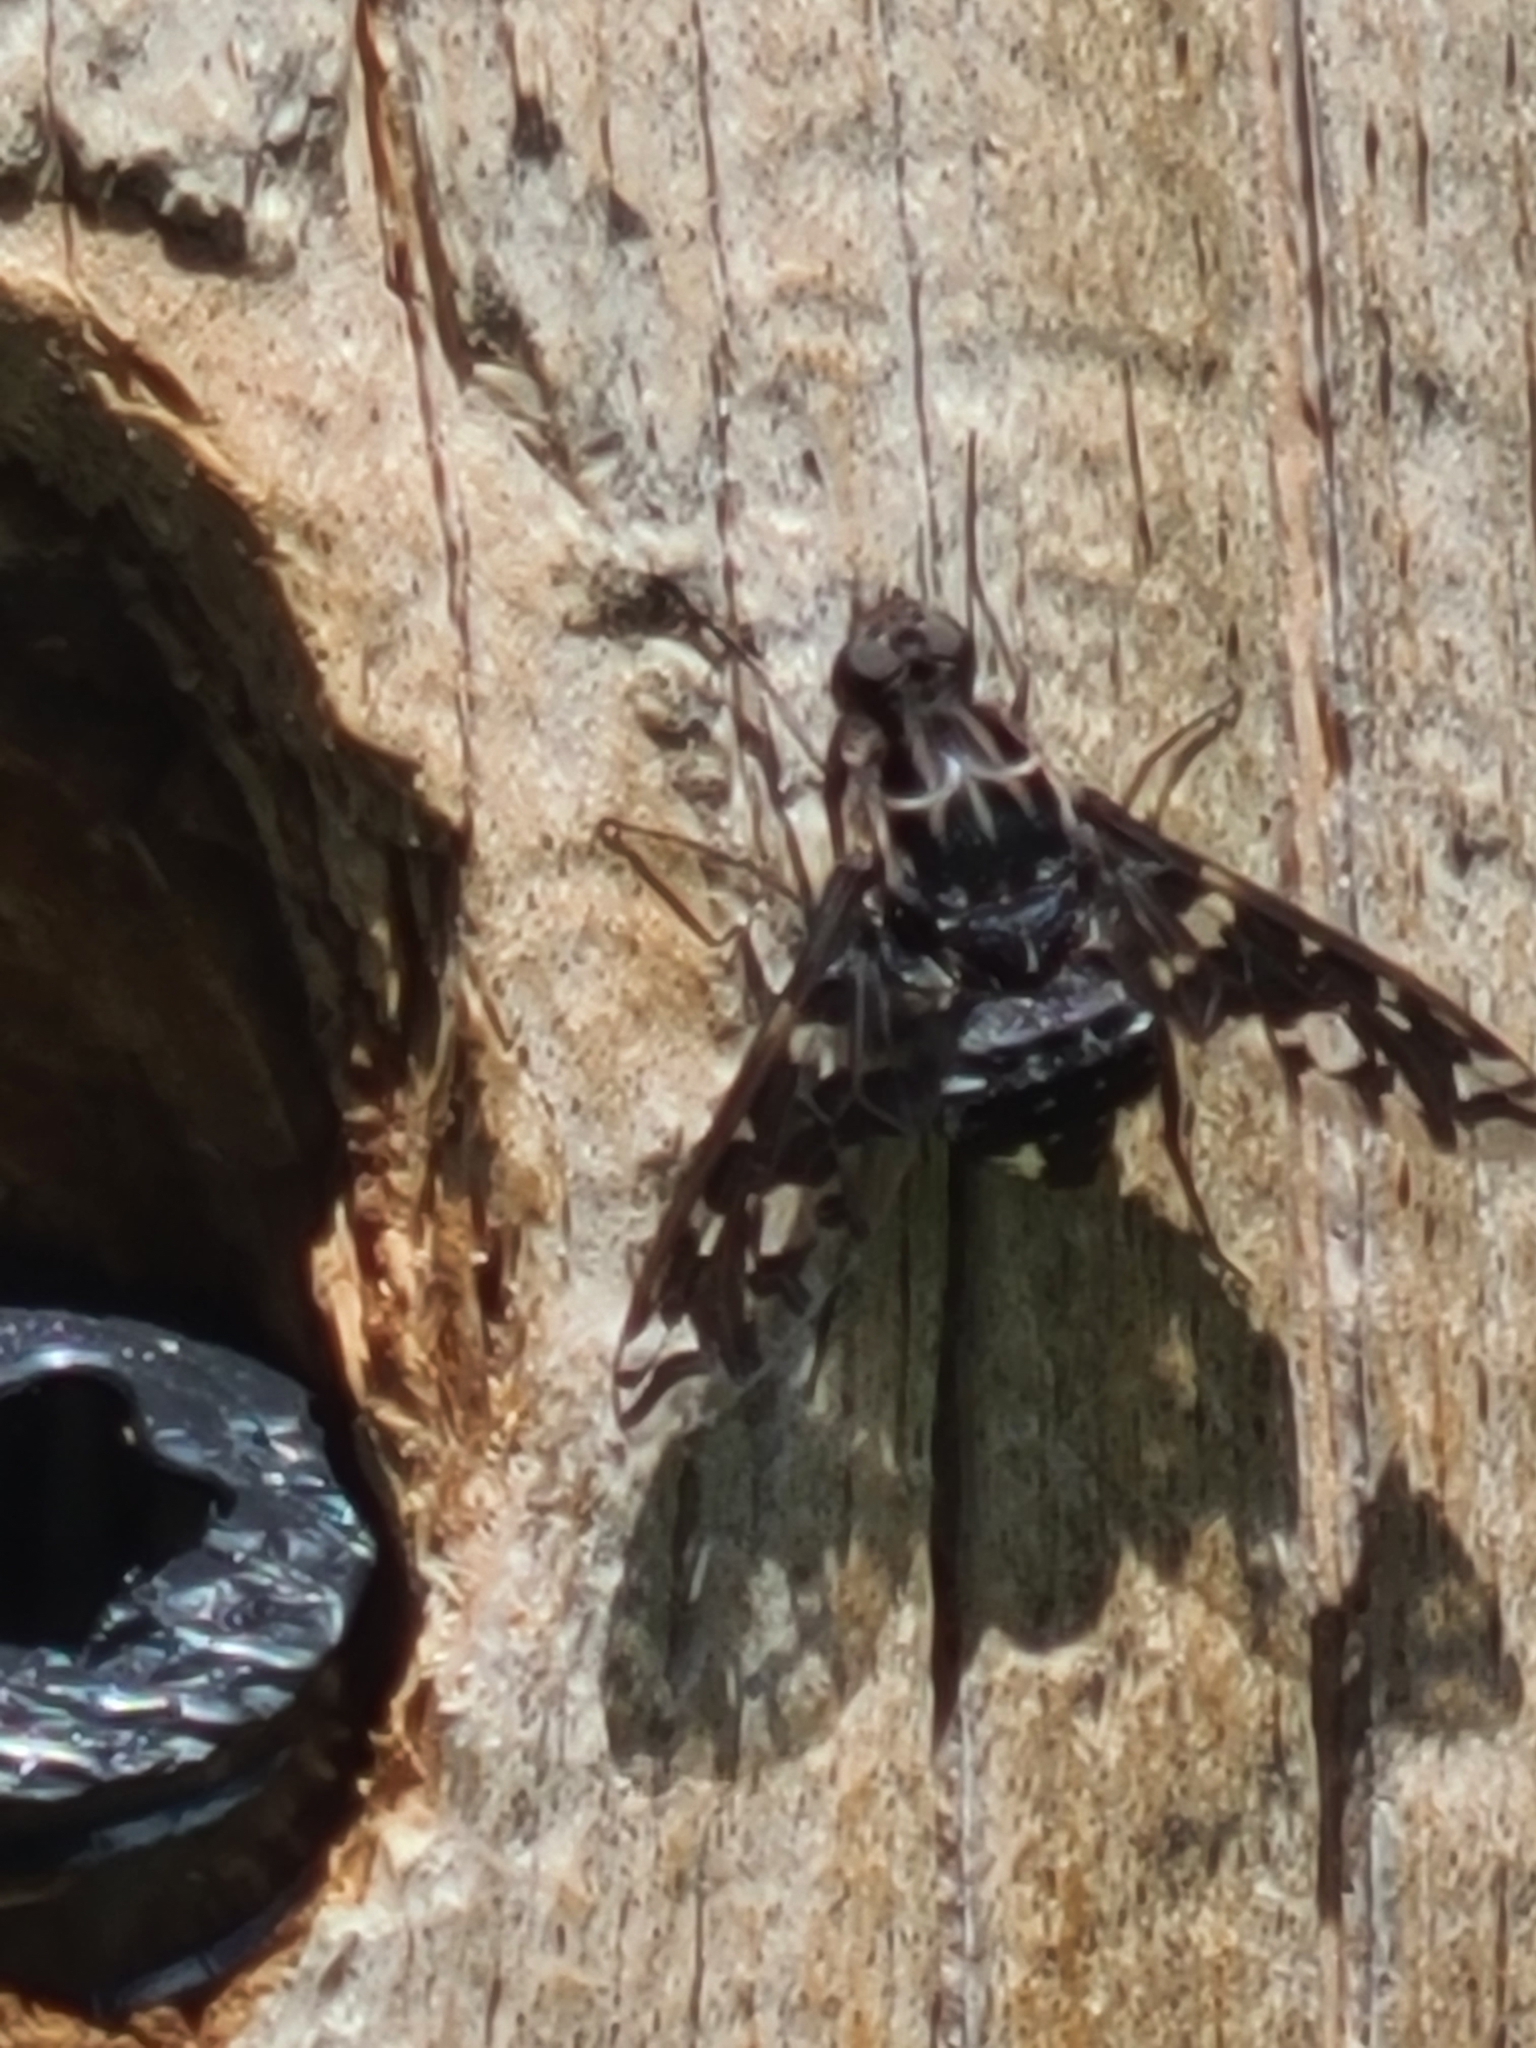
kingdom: Animalia
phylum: Arthropoda
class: Insecta
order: Diptera
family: Bombyliidae
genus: Xenox
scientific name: Xenox tigrinus
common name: Tiger bee fly
